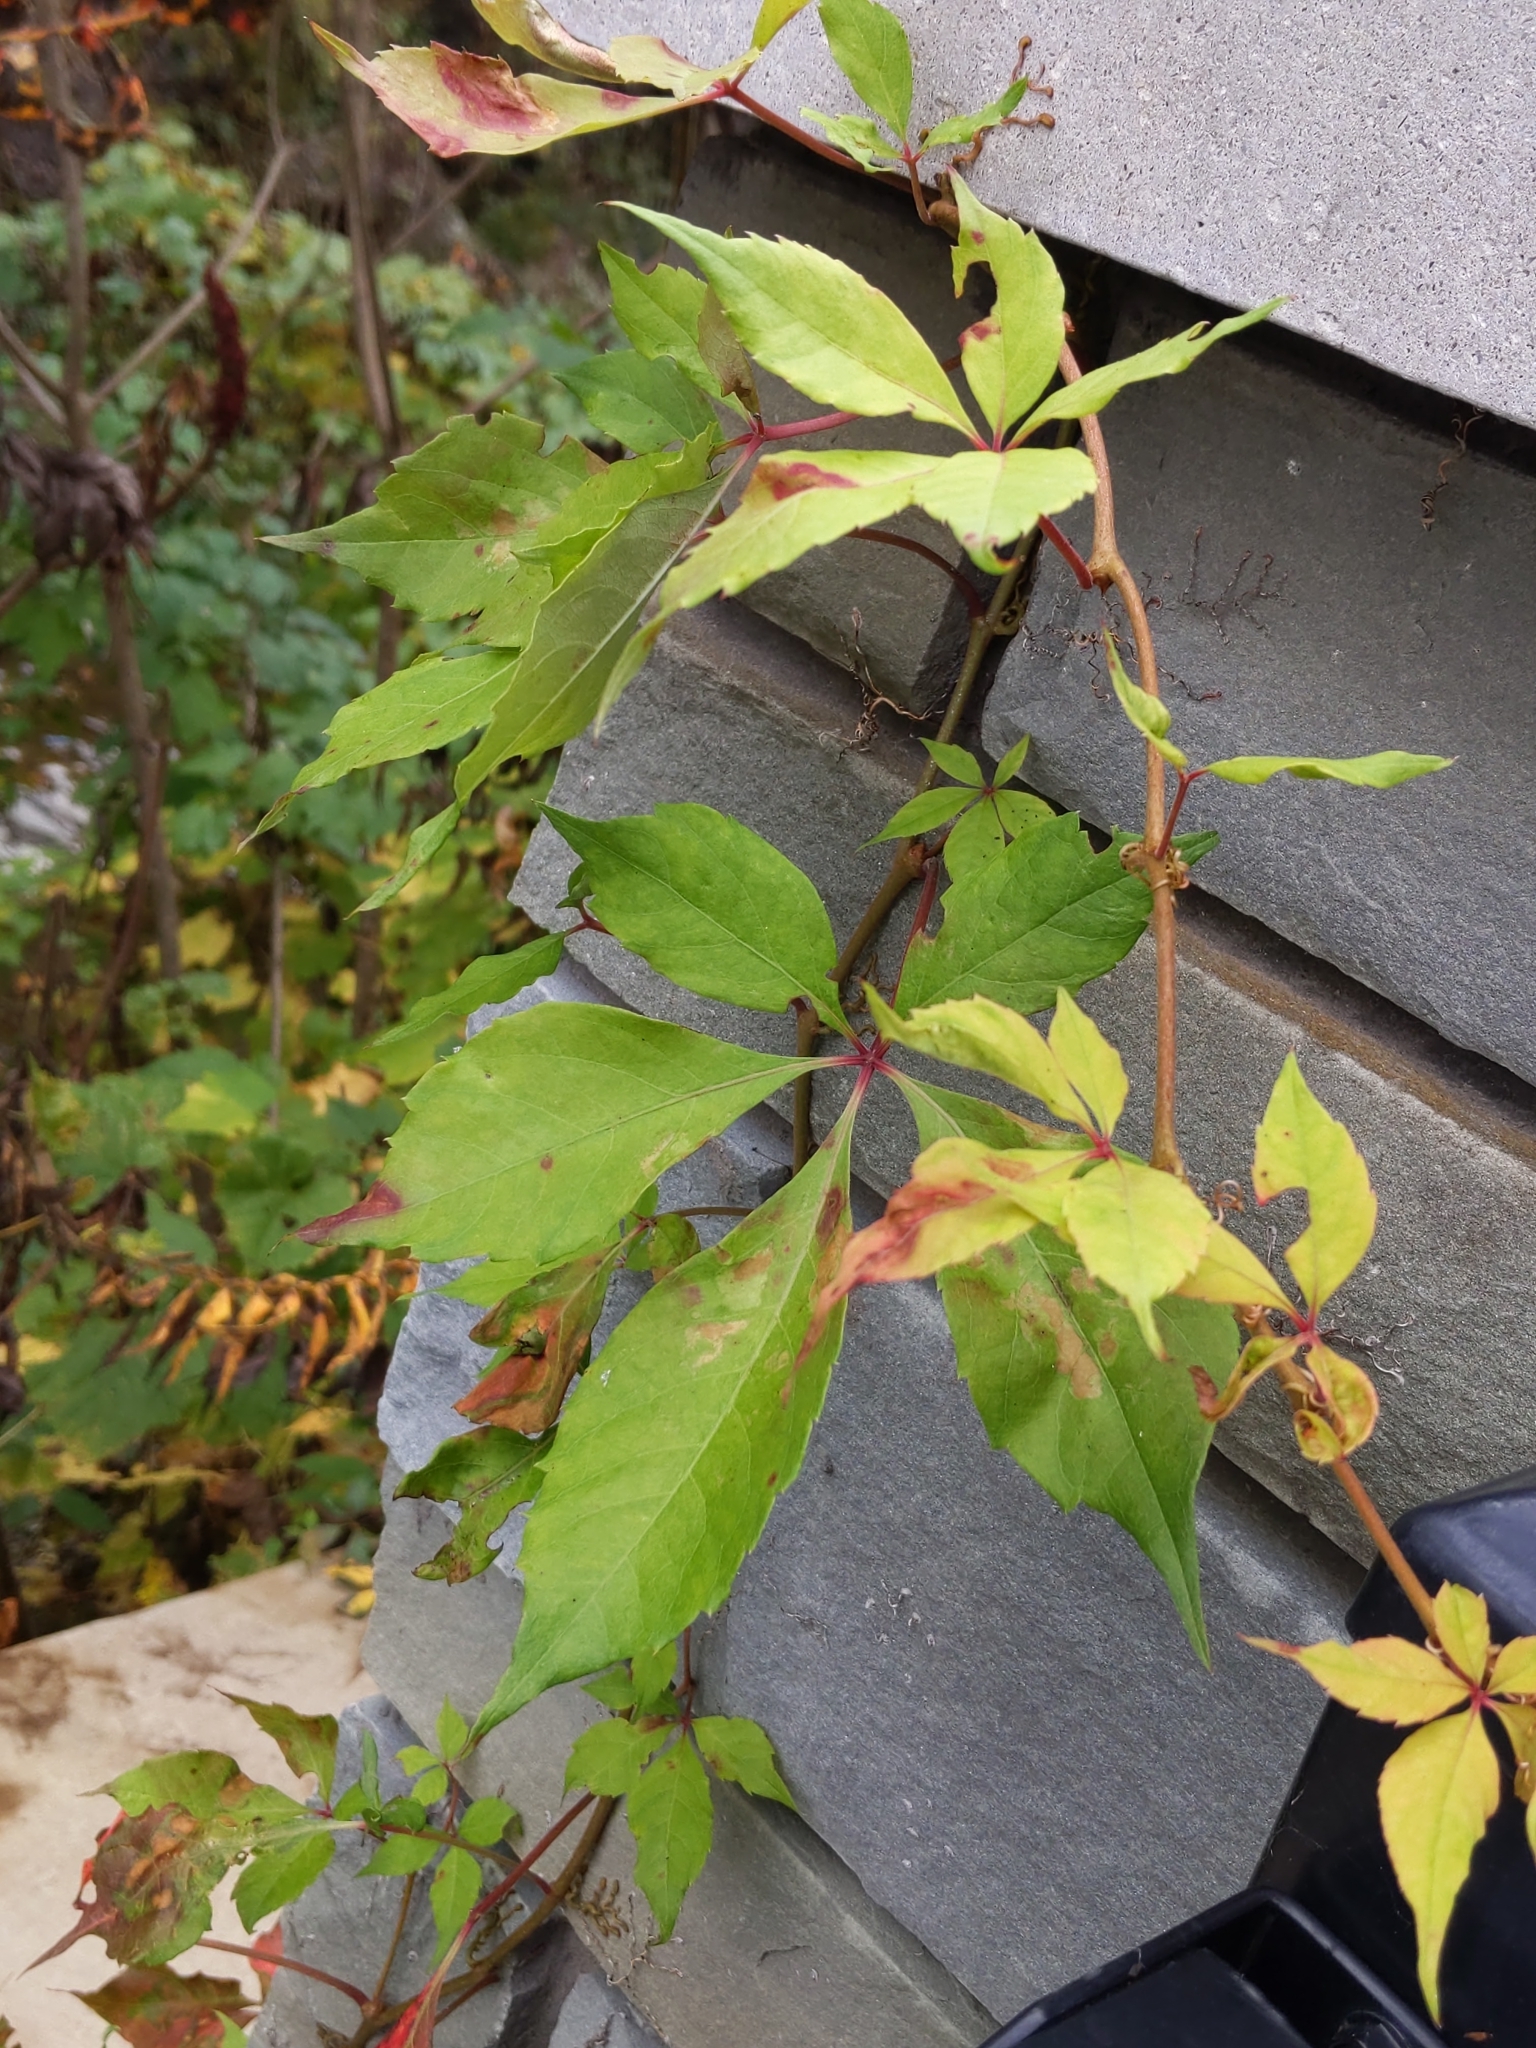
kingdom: Plantae
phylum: Tracheophyta
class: Magnoliopsida
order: Vitales
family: Vitaceae
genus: Parthenocissus
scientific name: Parthenocissus quinquefolia
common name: Virginia-creeper
